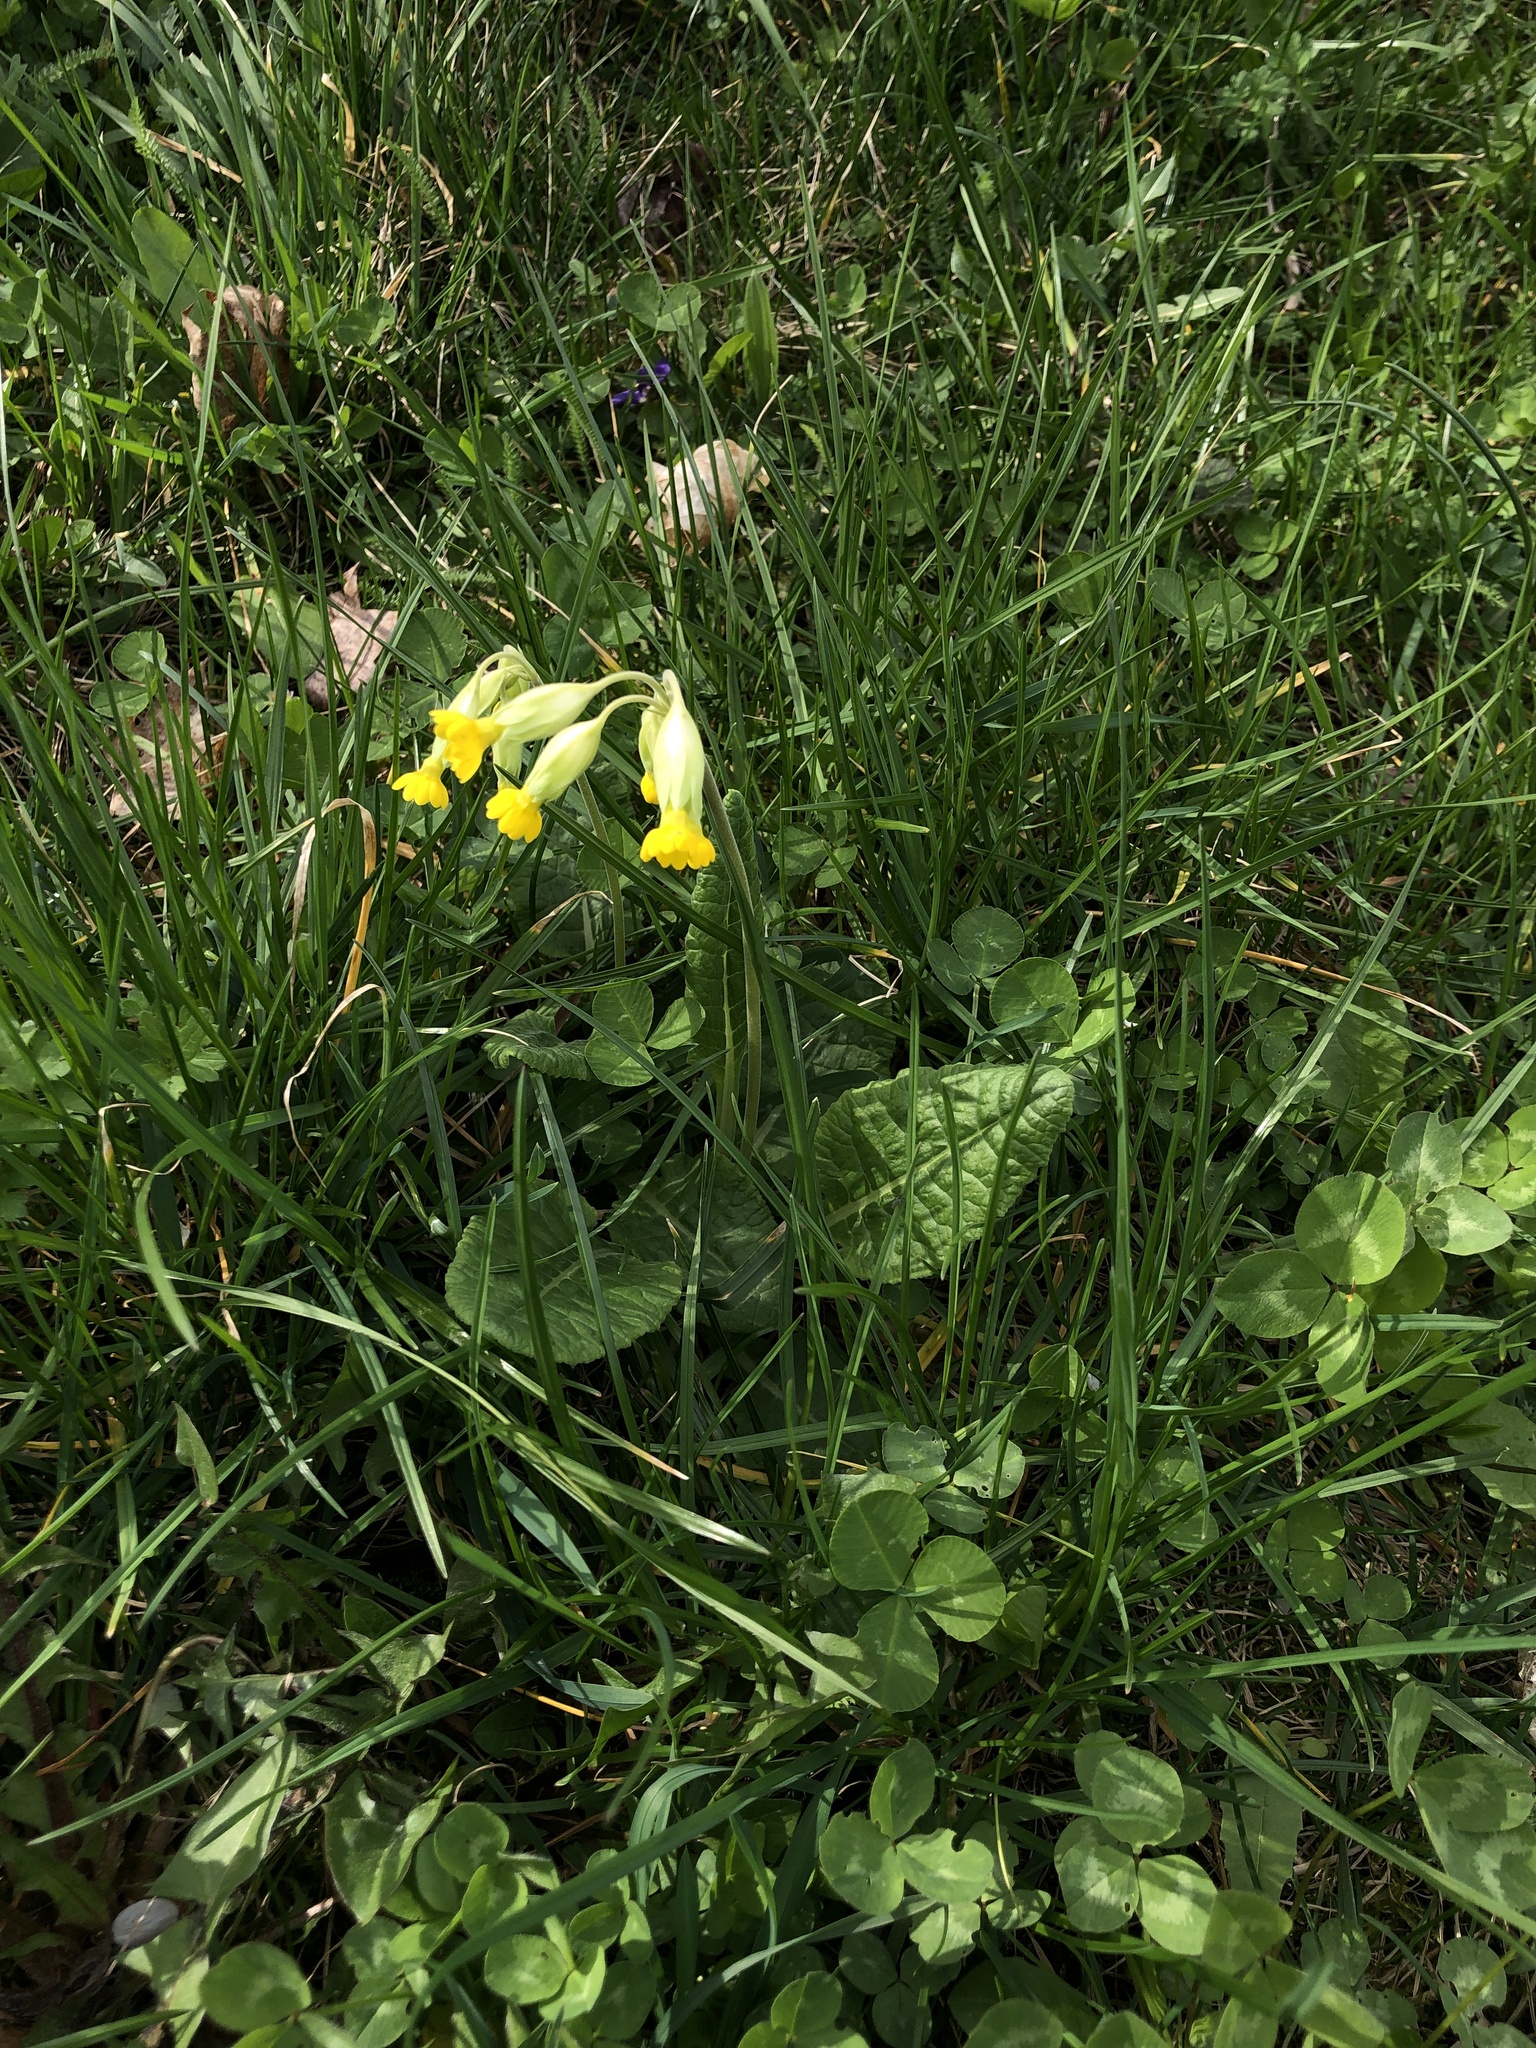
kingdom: Plantae
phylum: Tracheophyta
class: Magnoliopsida
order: Ericales
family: Primulaceae
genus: Primula
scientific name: Primula veris
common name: Cowslip
